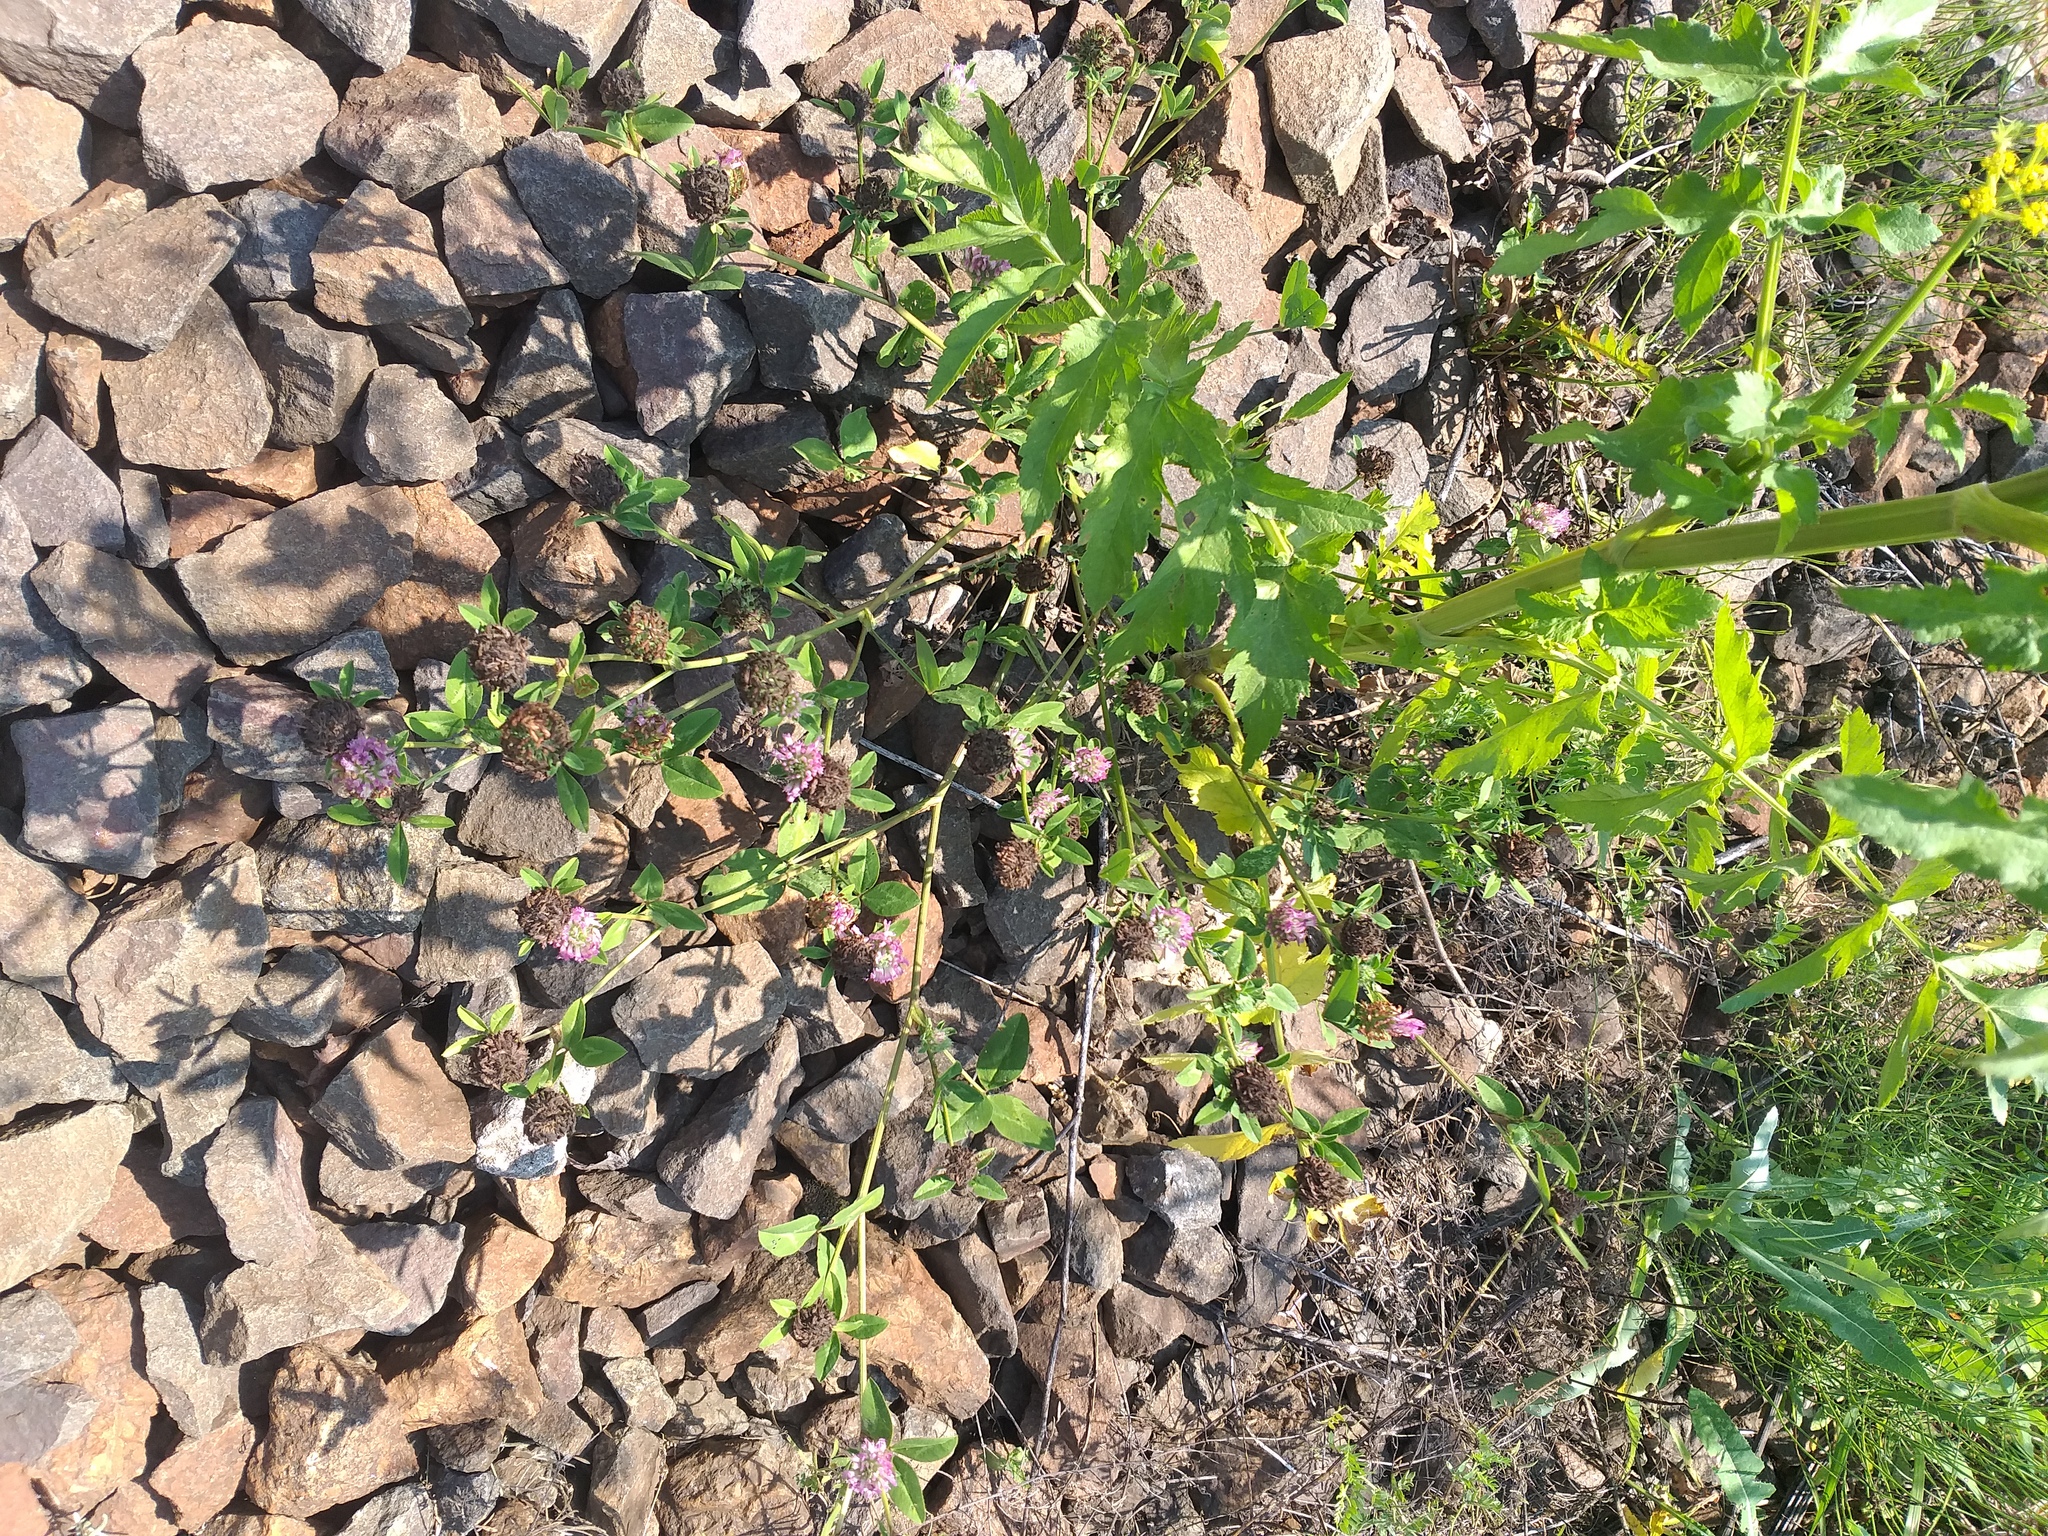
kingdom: Plantae
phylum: Tracheophyta
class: Magnoliopsida
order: Fabales
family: Fabaceae
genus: Trifolium
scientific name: Trifolium pratense
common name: Red clover
